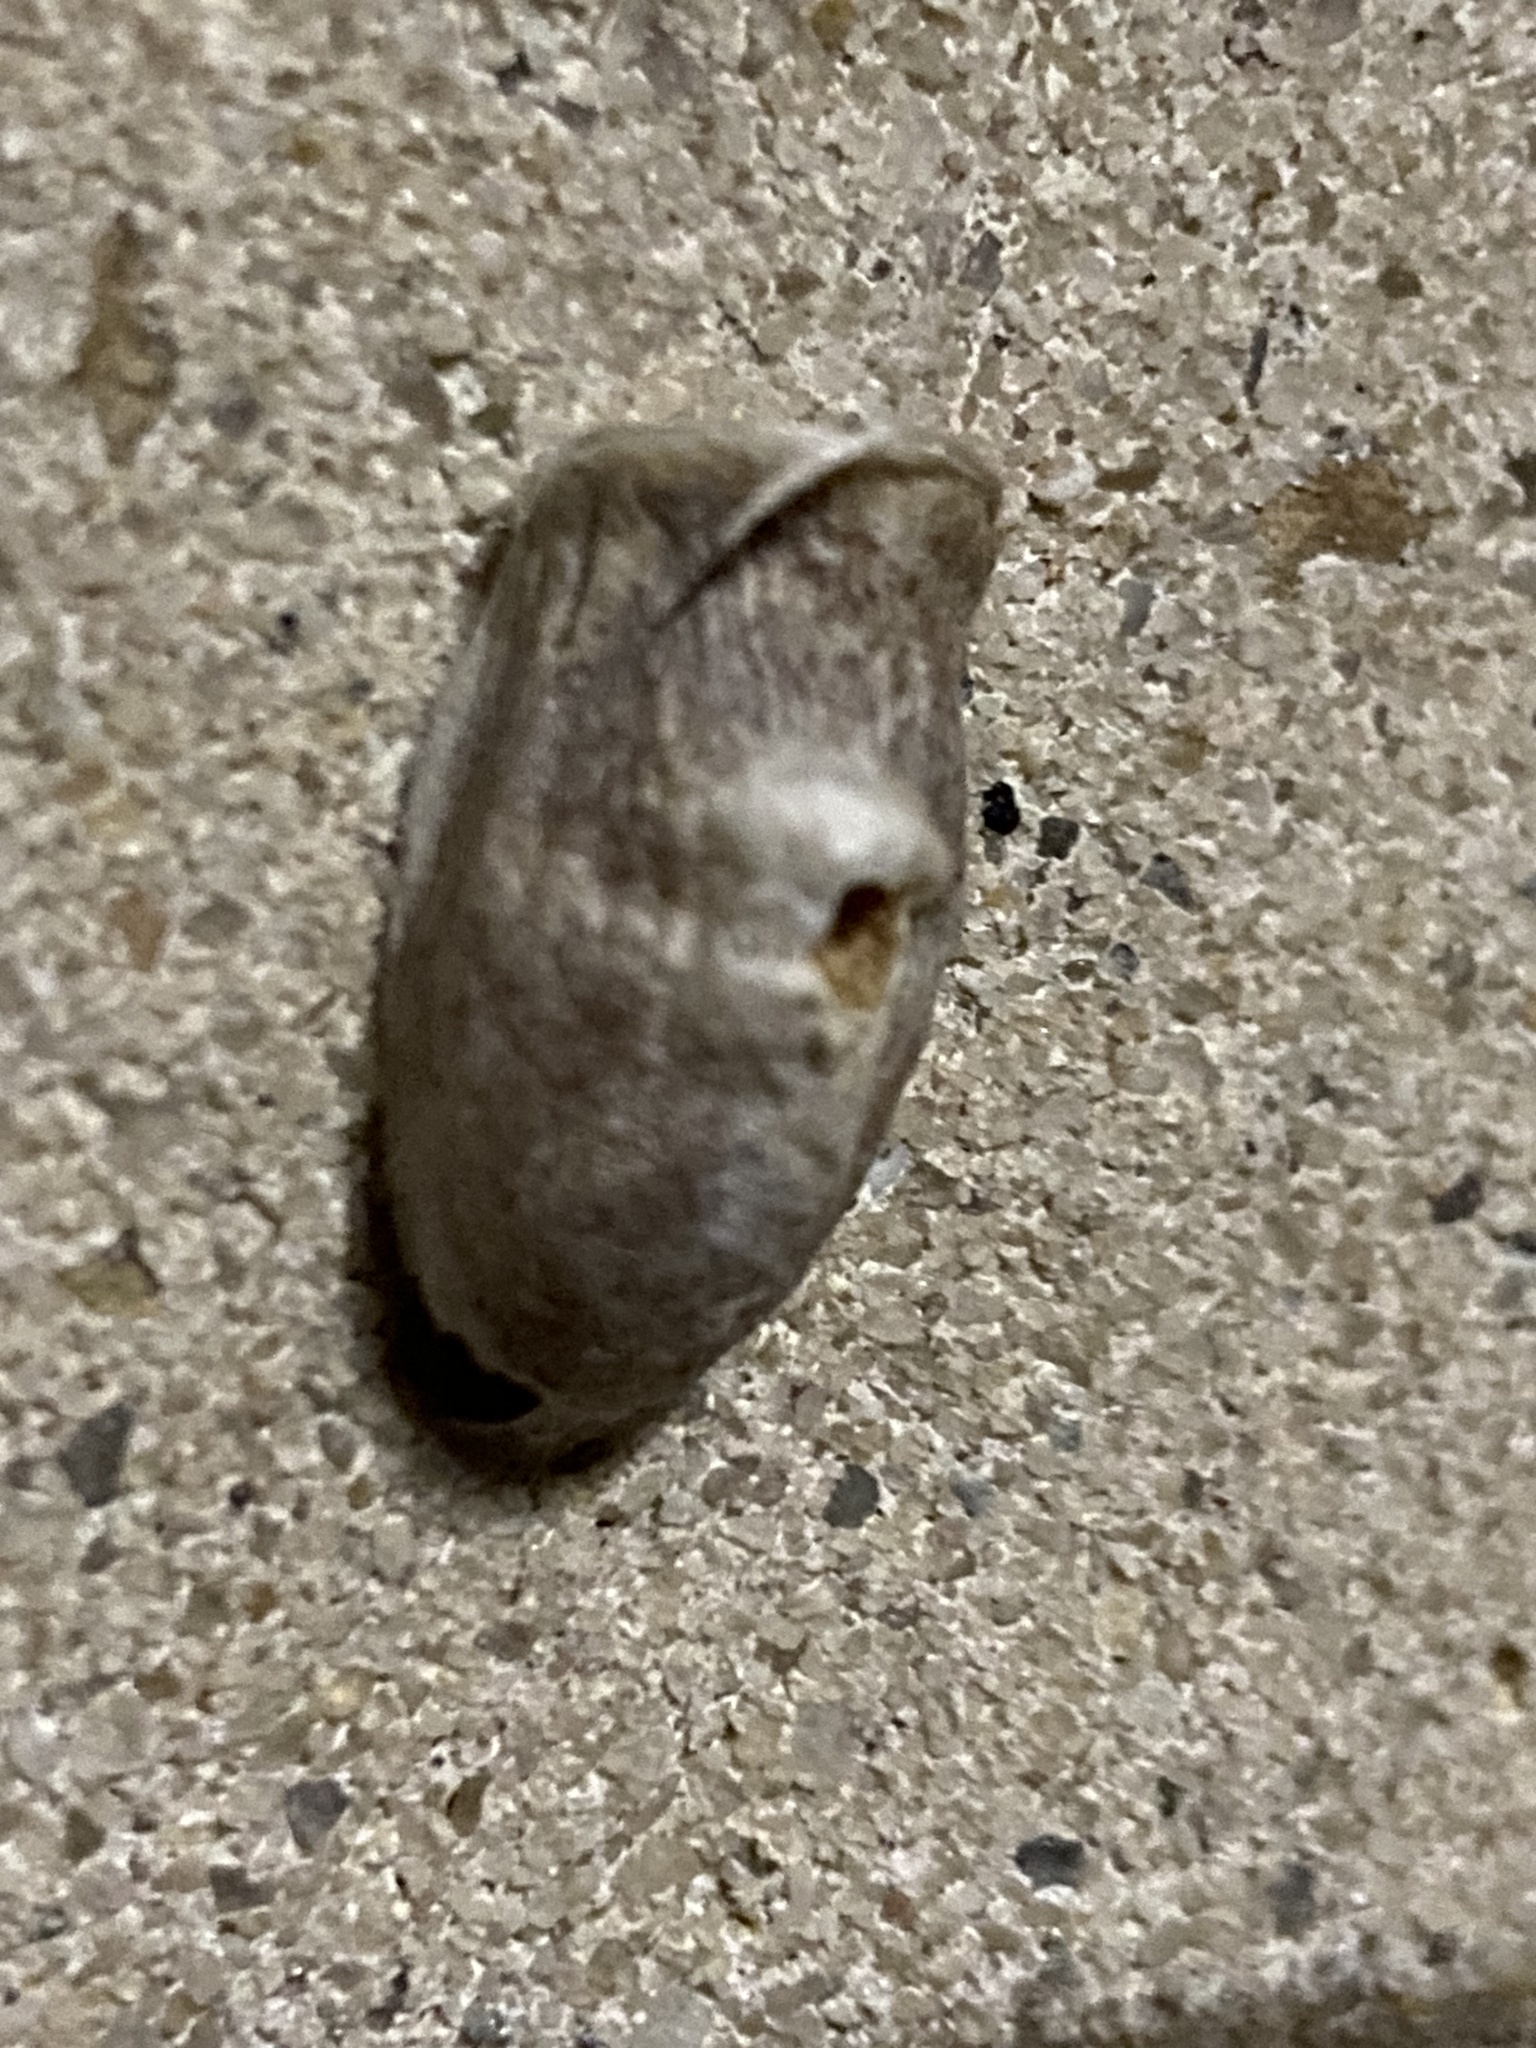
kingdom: Animalia
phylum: Arthropoda
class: Insecta
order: Lepidoptera
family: Megalopygidae
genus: Megalopyge
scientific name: Megalopyge opercularis
